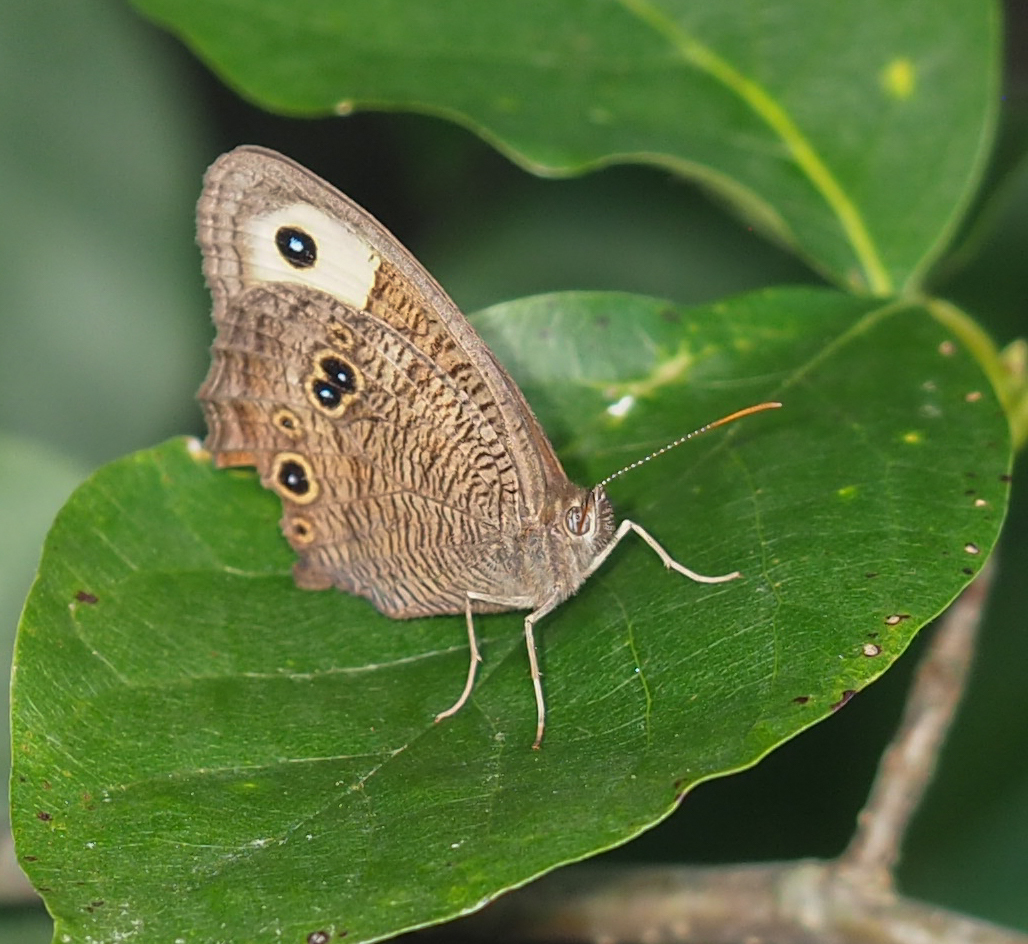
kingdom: Animalia
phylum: Arthropoda
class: Insecta
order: Lepidoptera
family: Nymphalidae
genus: Cercyonis
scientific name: Cercyonis pegala
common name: Common wood-nymph
